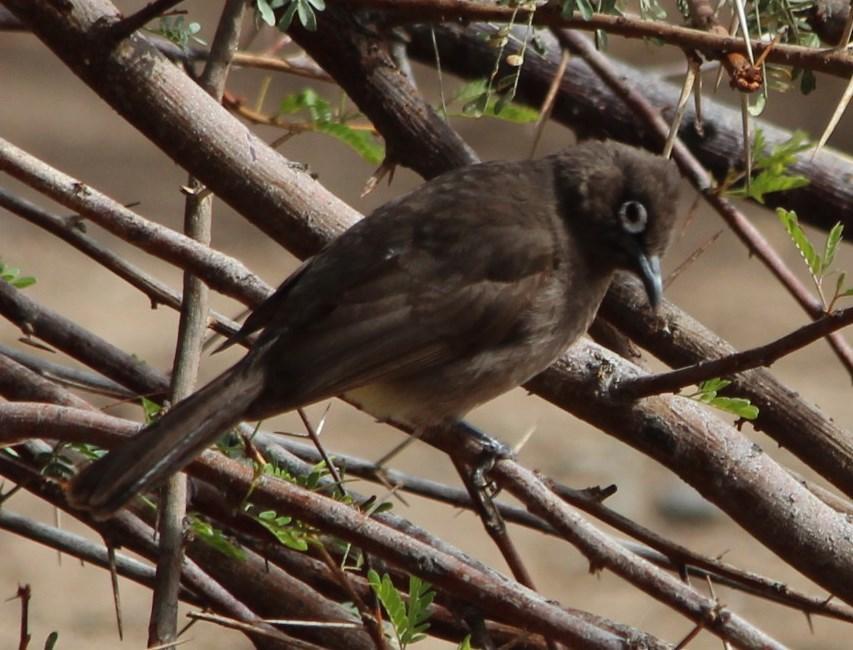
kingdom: Animalia
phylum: Chordata
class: Aves
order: Passeriformes
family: Pycnonotidae
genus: Pycnonotus
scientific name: Pycnonotus capensis
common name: Cape bulbul
